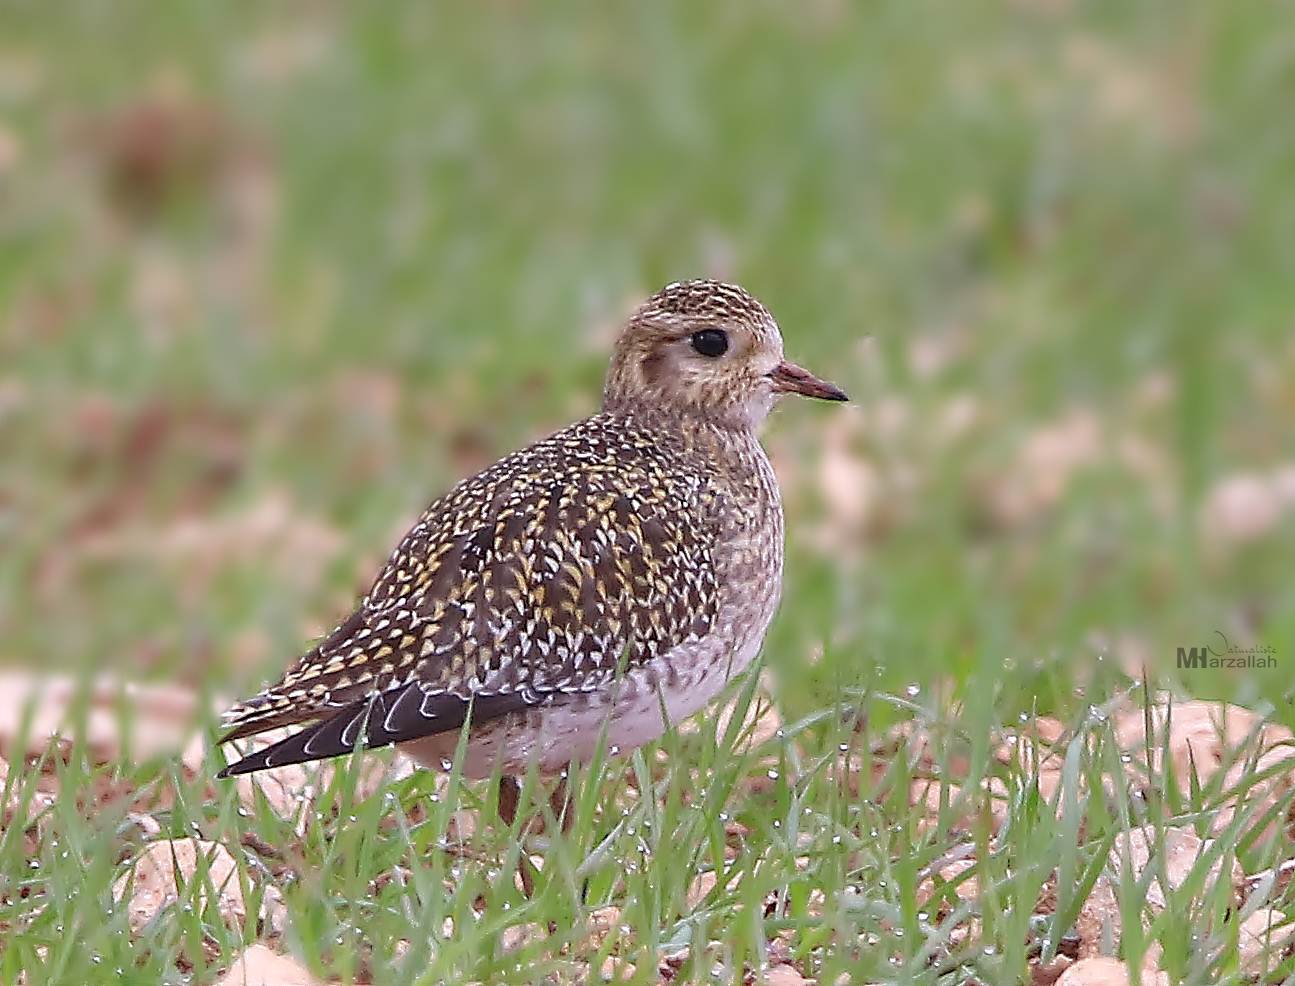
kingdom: Animalia
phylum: Chordata
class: Aves
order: Charadriiformes
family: Charadriidae
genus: Pluvialis
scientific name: Pluvialis apricaria
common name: European golden plover
